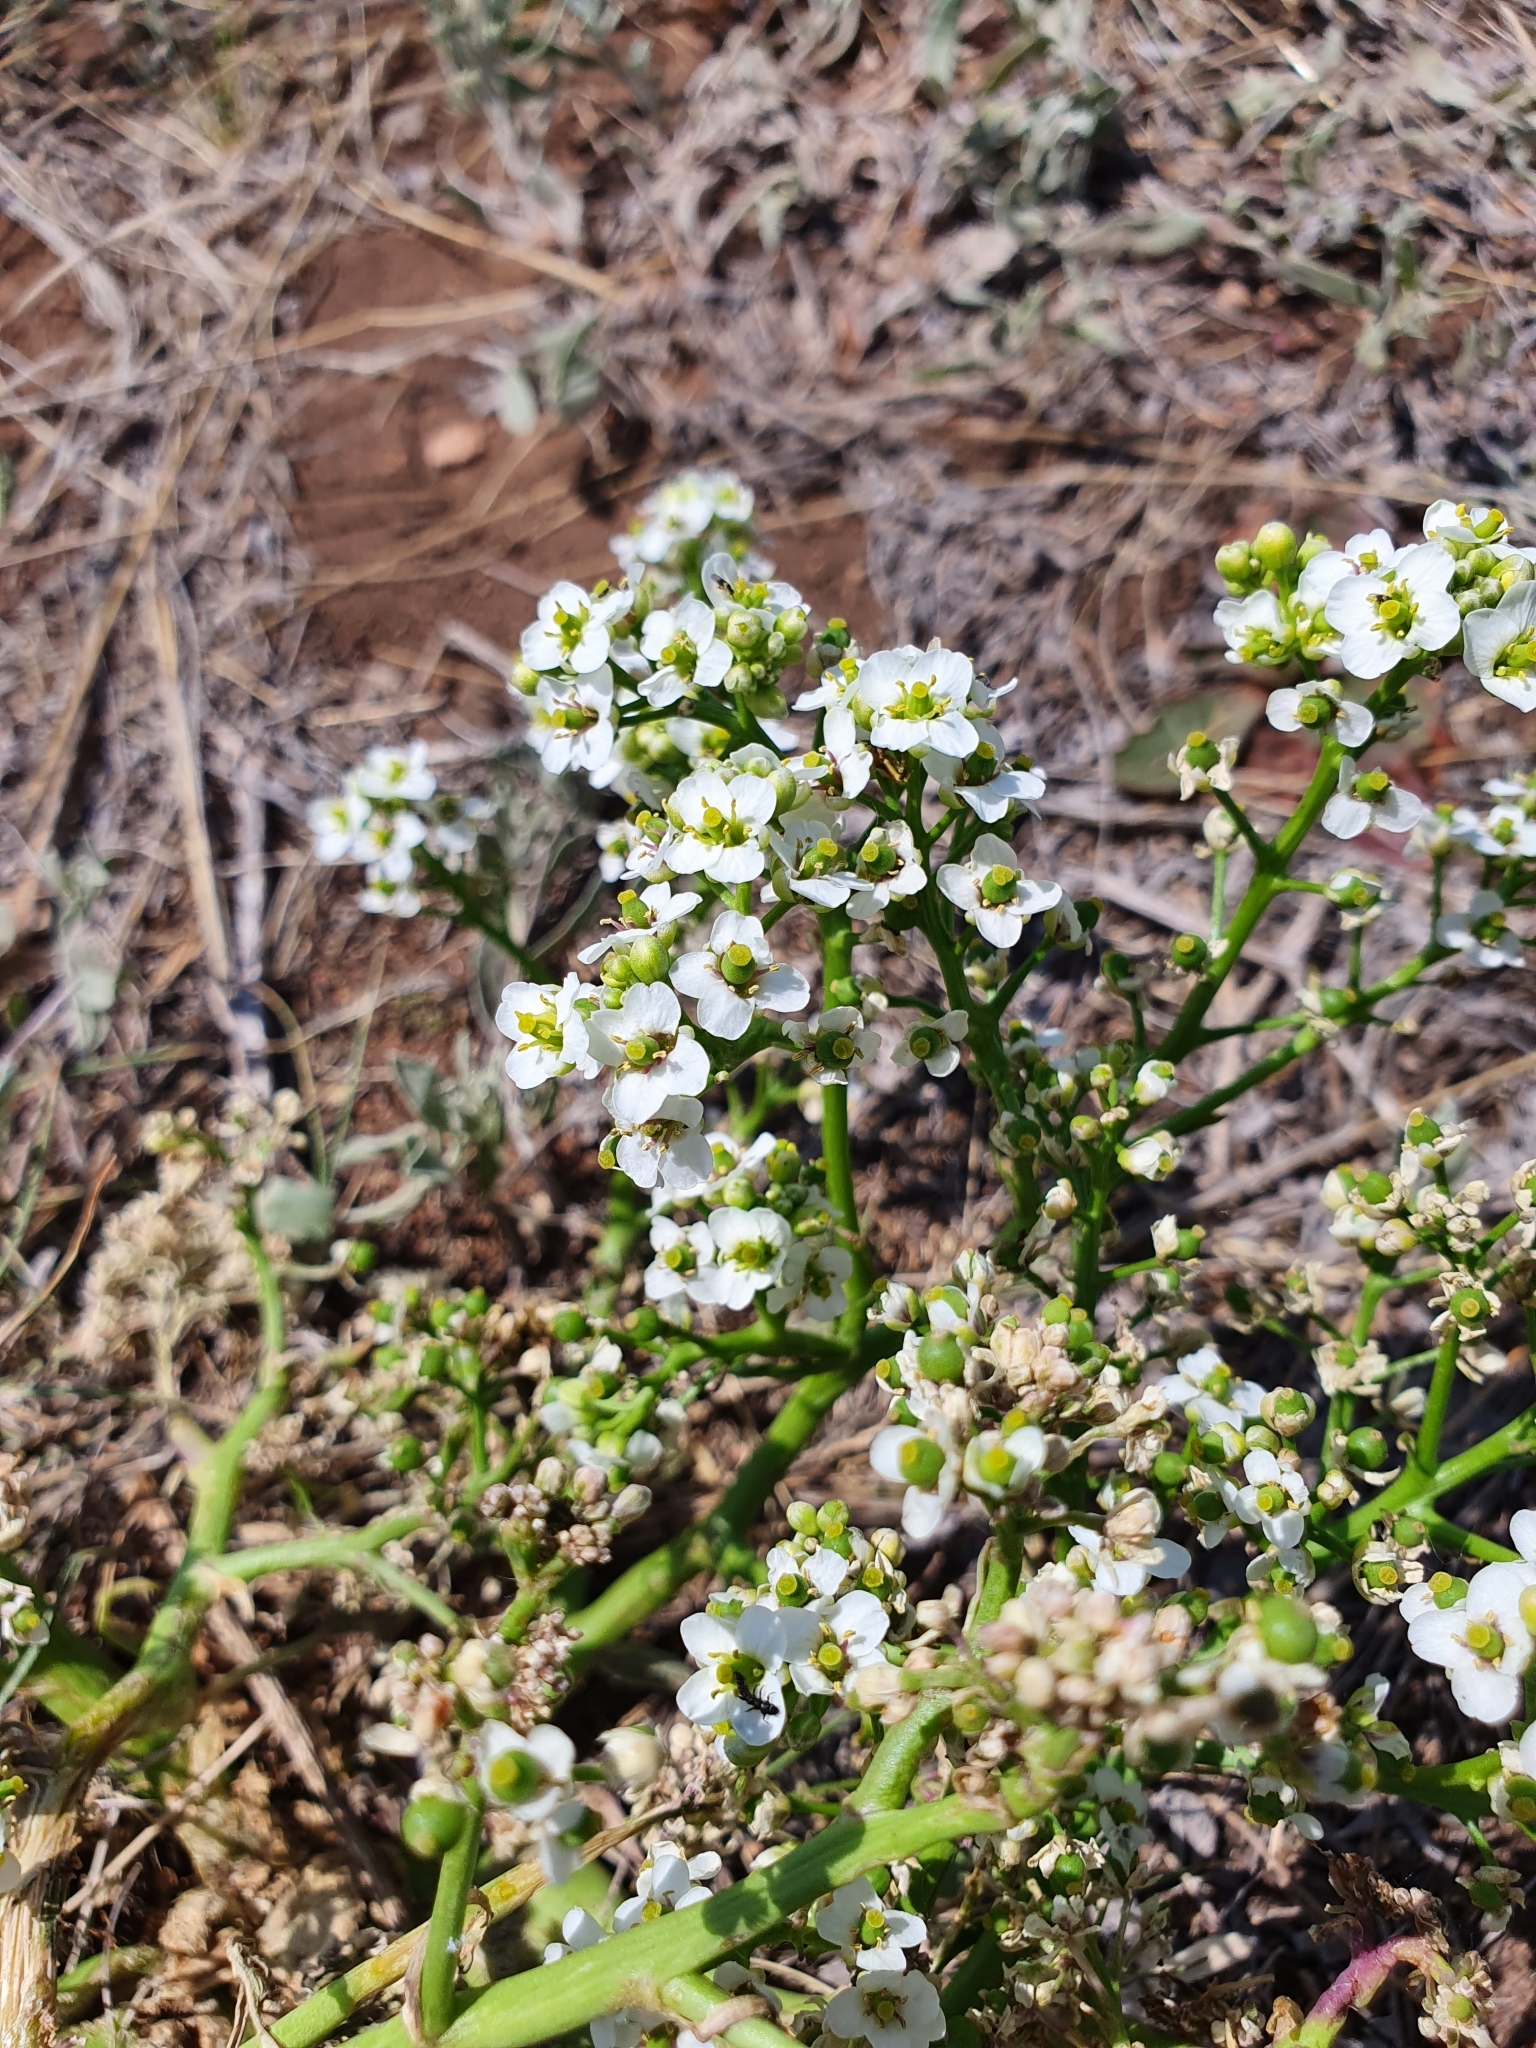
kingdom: Plantae
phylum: Tracheophyta
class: Magnoliopsida
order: Brassicales
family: Brassicaceae
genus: Crambe
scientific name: Crambe tataria
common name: Tartarian breadplant
